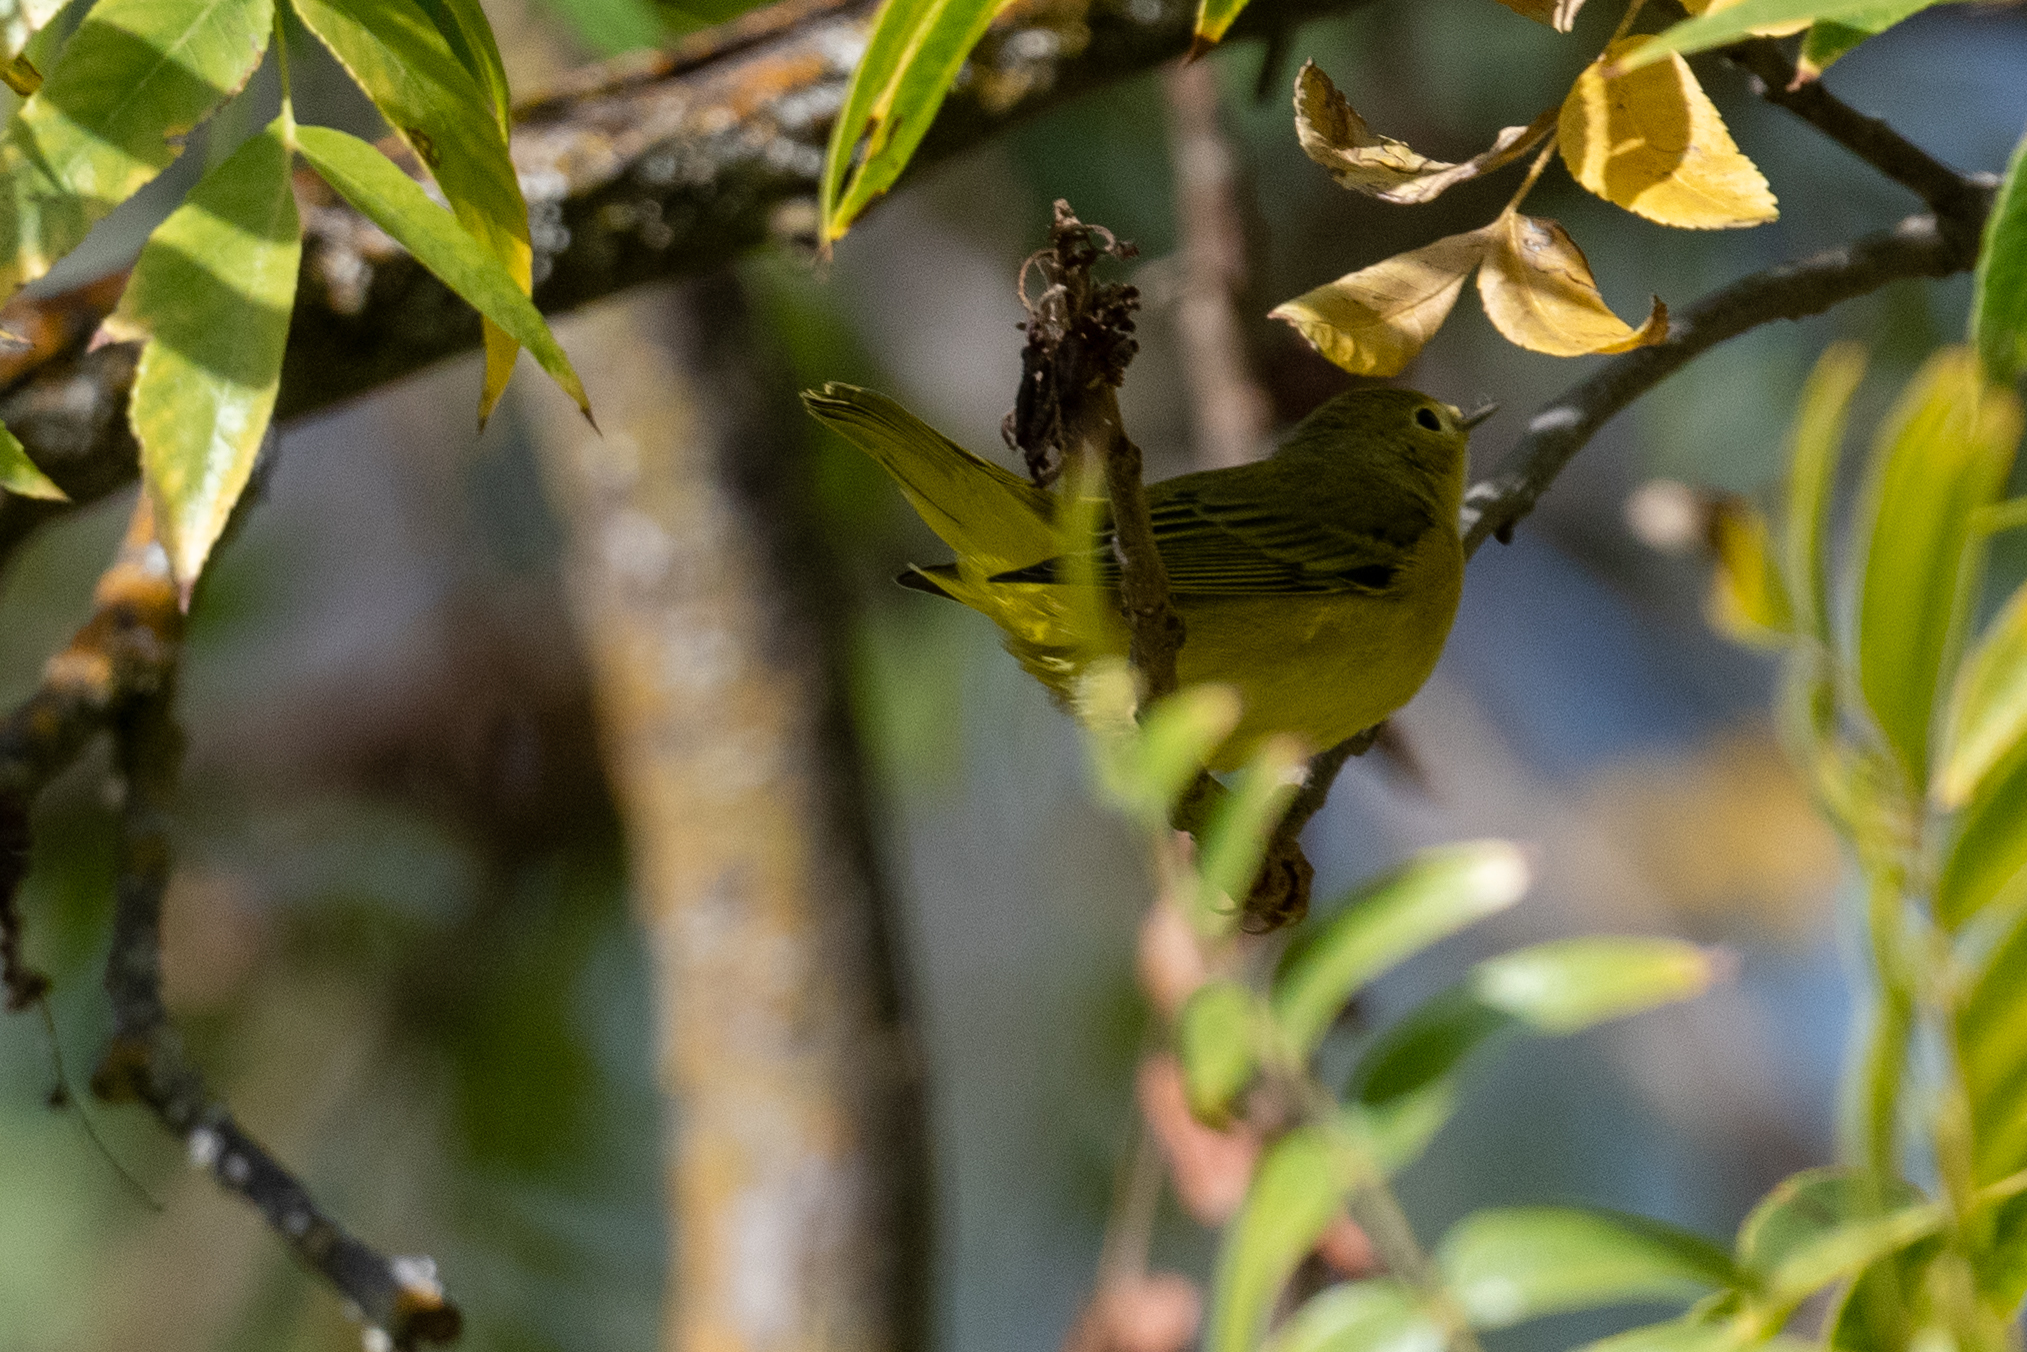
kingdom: Animalia
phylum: Chordata
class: Aves
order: Passeriformes
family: Parulidae
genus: Setophaga
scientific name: Setophaga petechia
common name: Yellow warbler
